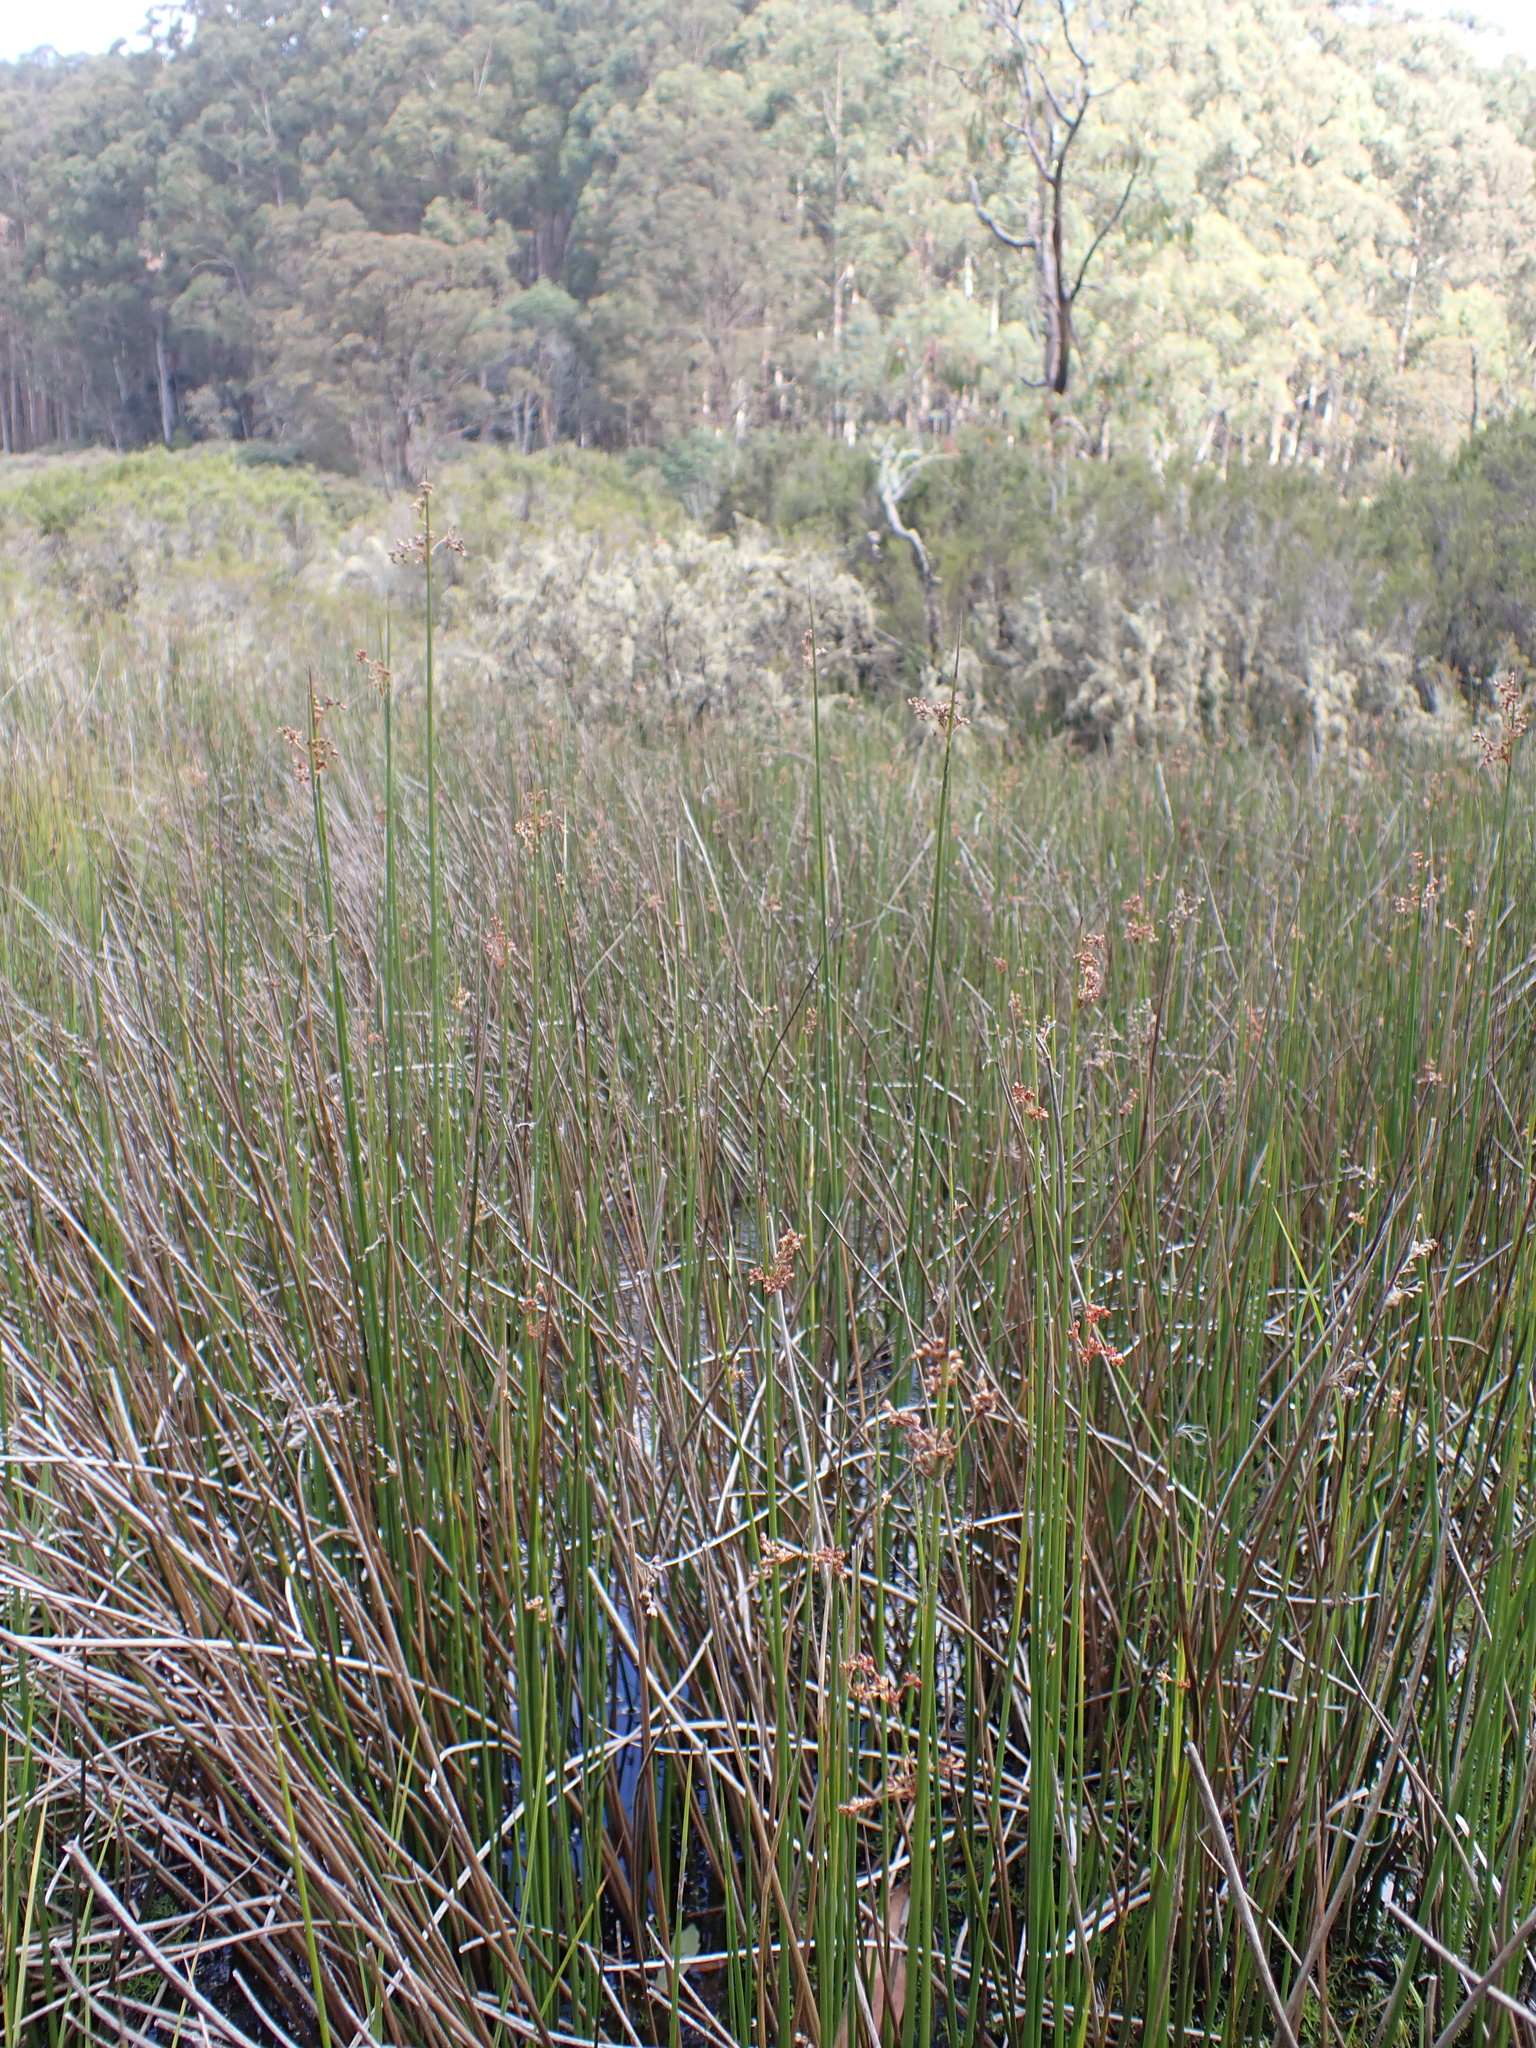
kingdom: Plantae
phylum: Tracheophyta
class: Liliopsida
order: Poales
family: Juncaceae
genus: Juncus
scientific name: Juncus alexandri
